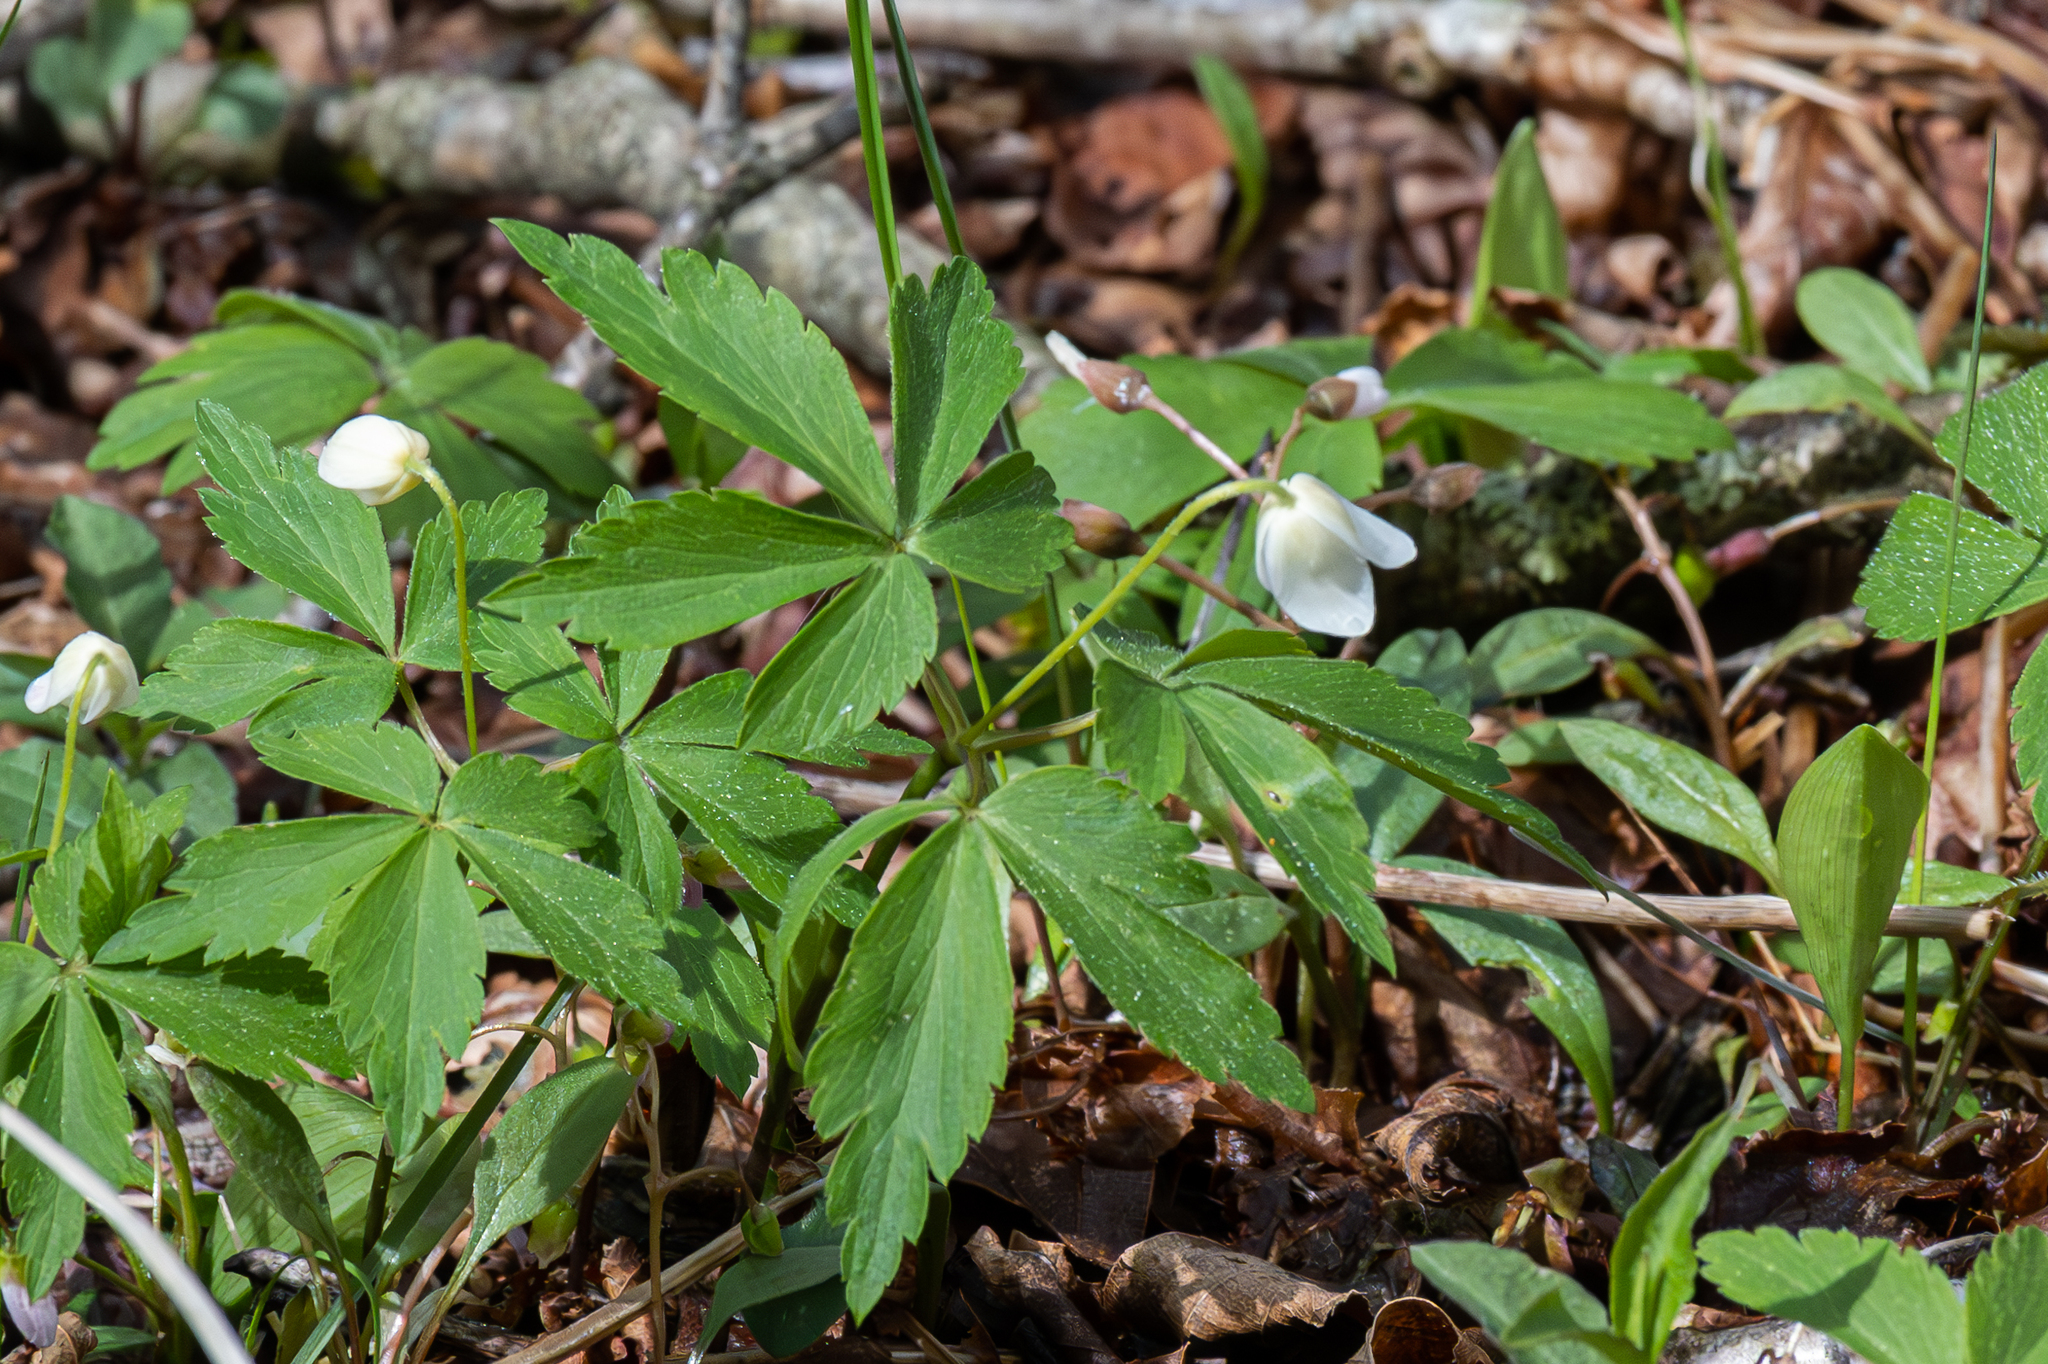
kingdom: Plantae
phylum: Tracheophyta
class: Magnoliopsida
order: Ranunculales
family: Ranunculaceae
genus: Anemone
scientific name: Anemone quinquefolia
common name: Wood anemone
